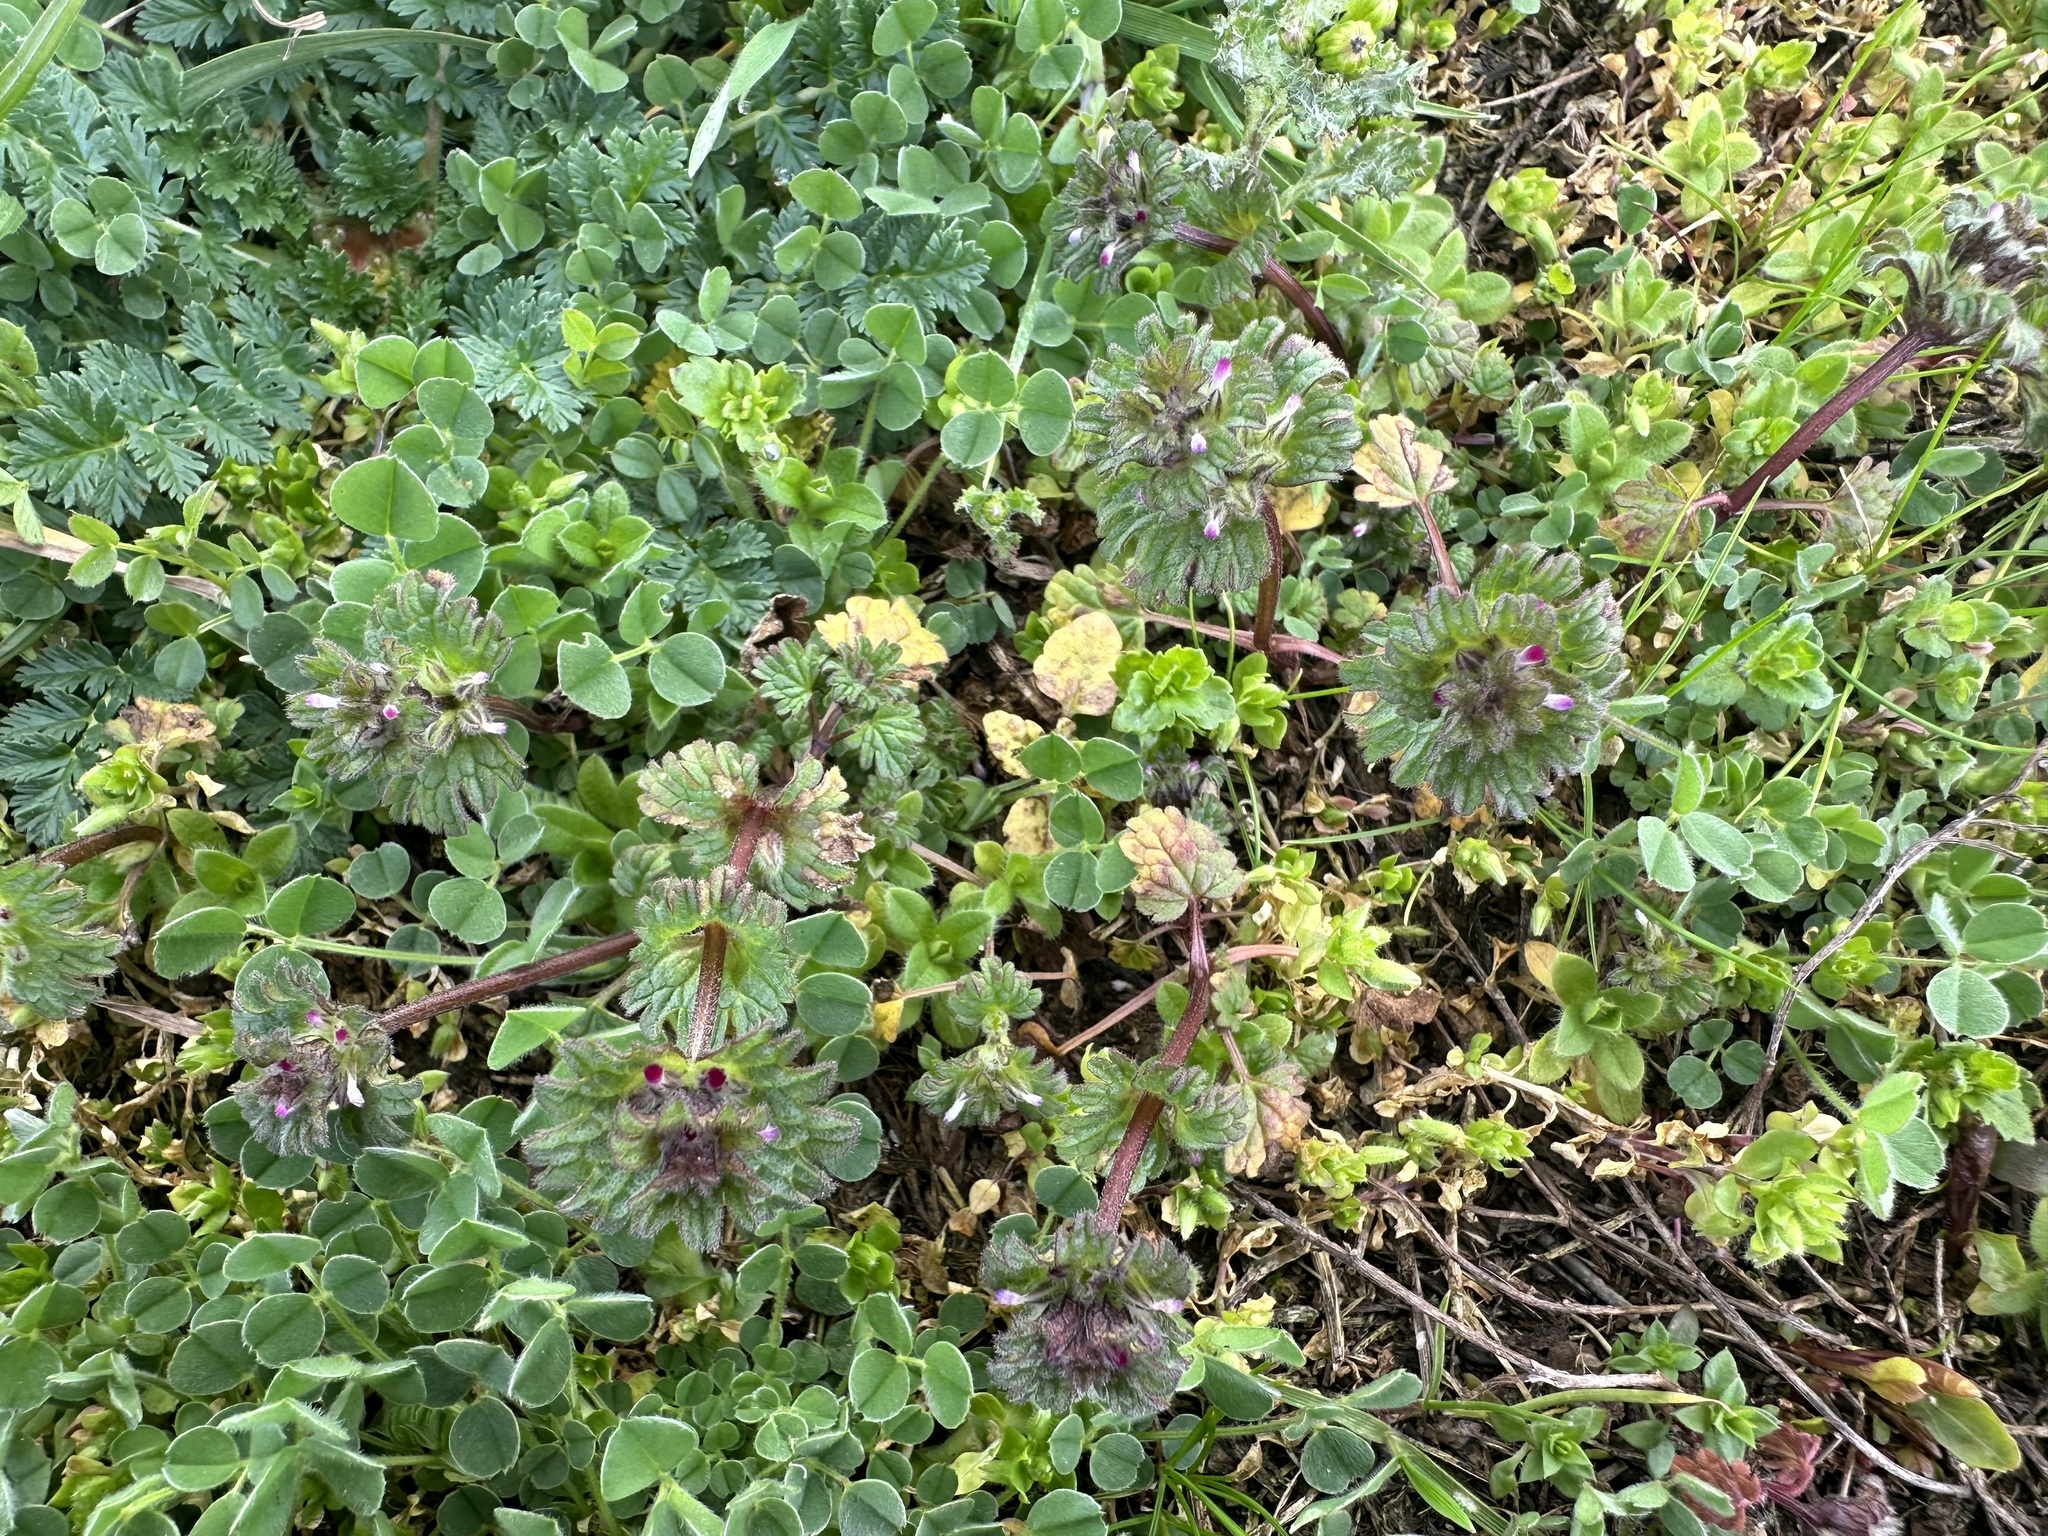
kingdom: Plantae
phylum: Tracheophyta
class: Magnoliopsida
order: Lamiales
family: Lamiaceae
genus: Lamium
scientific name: Lamium amplexicaule
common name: Henbit dead-nettle
